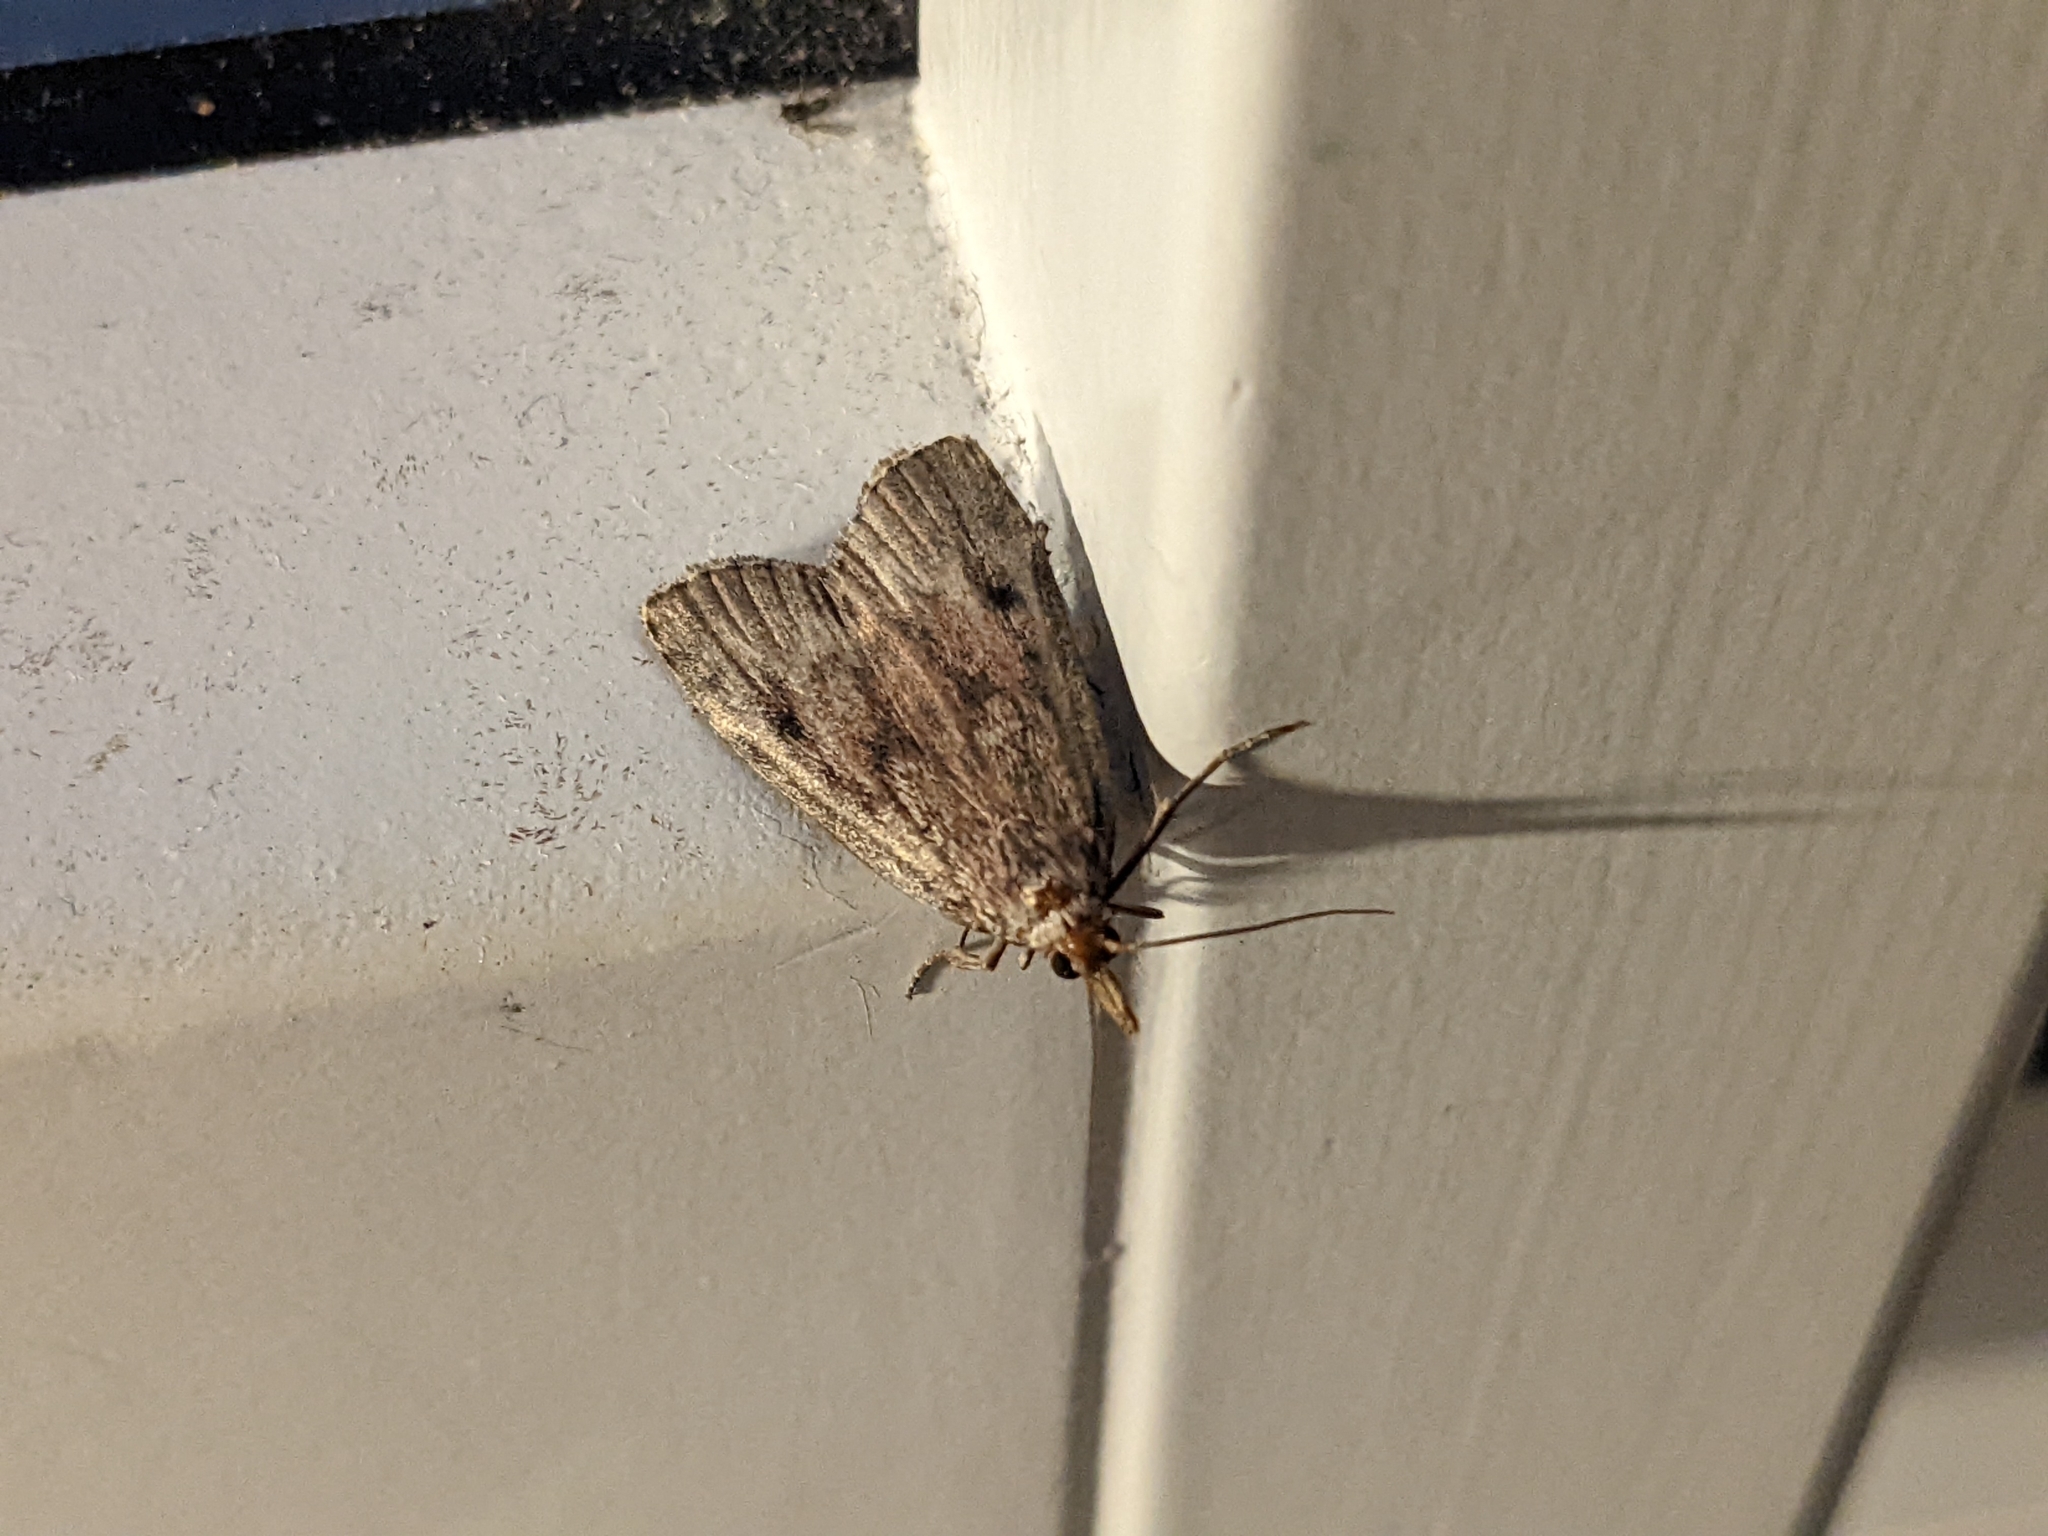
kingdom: Animalia
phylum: Arthropoda
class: Insecta
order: Lepidoptera
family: Pyralidae
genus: Aphomia
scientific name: Aphomia sociella
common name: Bee moth
